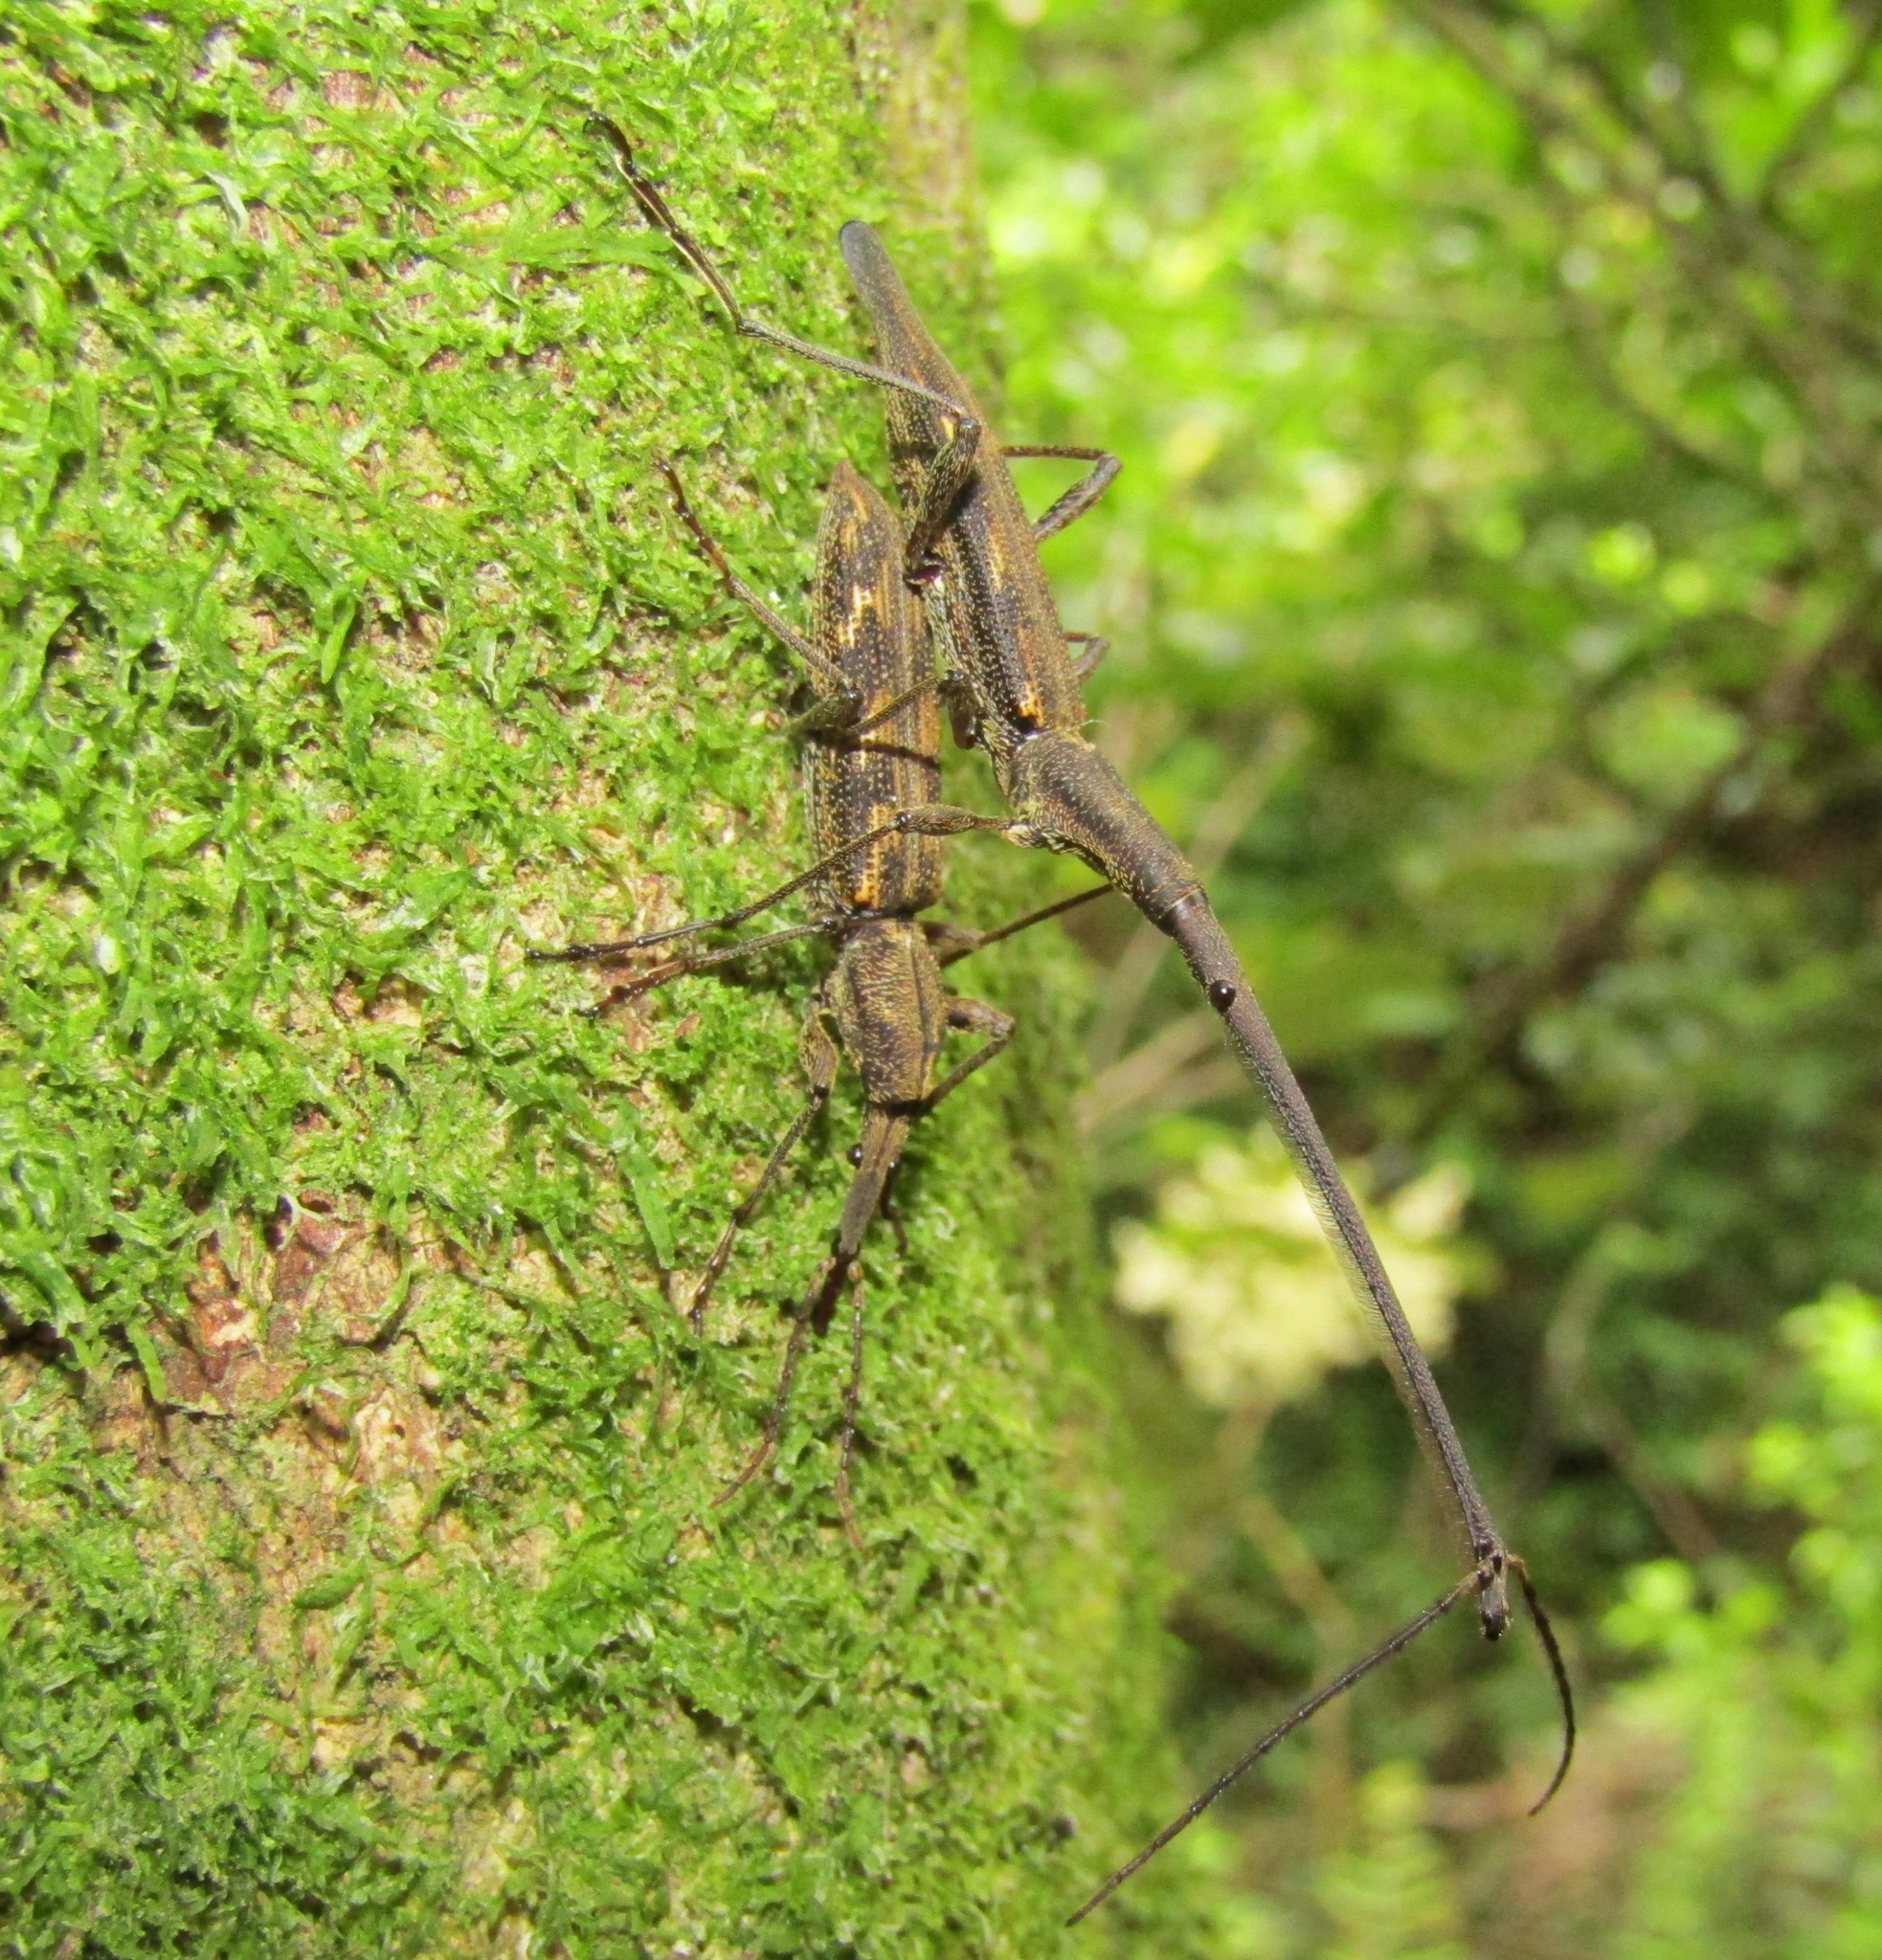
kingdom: Animalia
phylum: Arthropoda
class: Insecta
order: Coleoptera
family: Brentidae
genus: Lasiorhynchus
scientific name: Lasiorhynchus barbicornis
